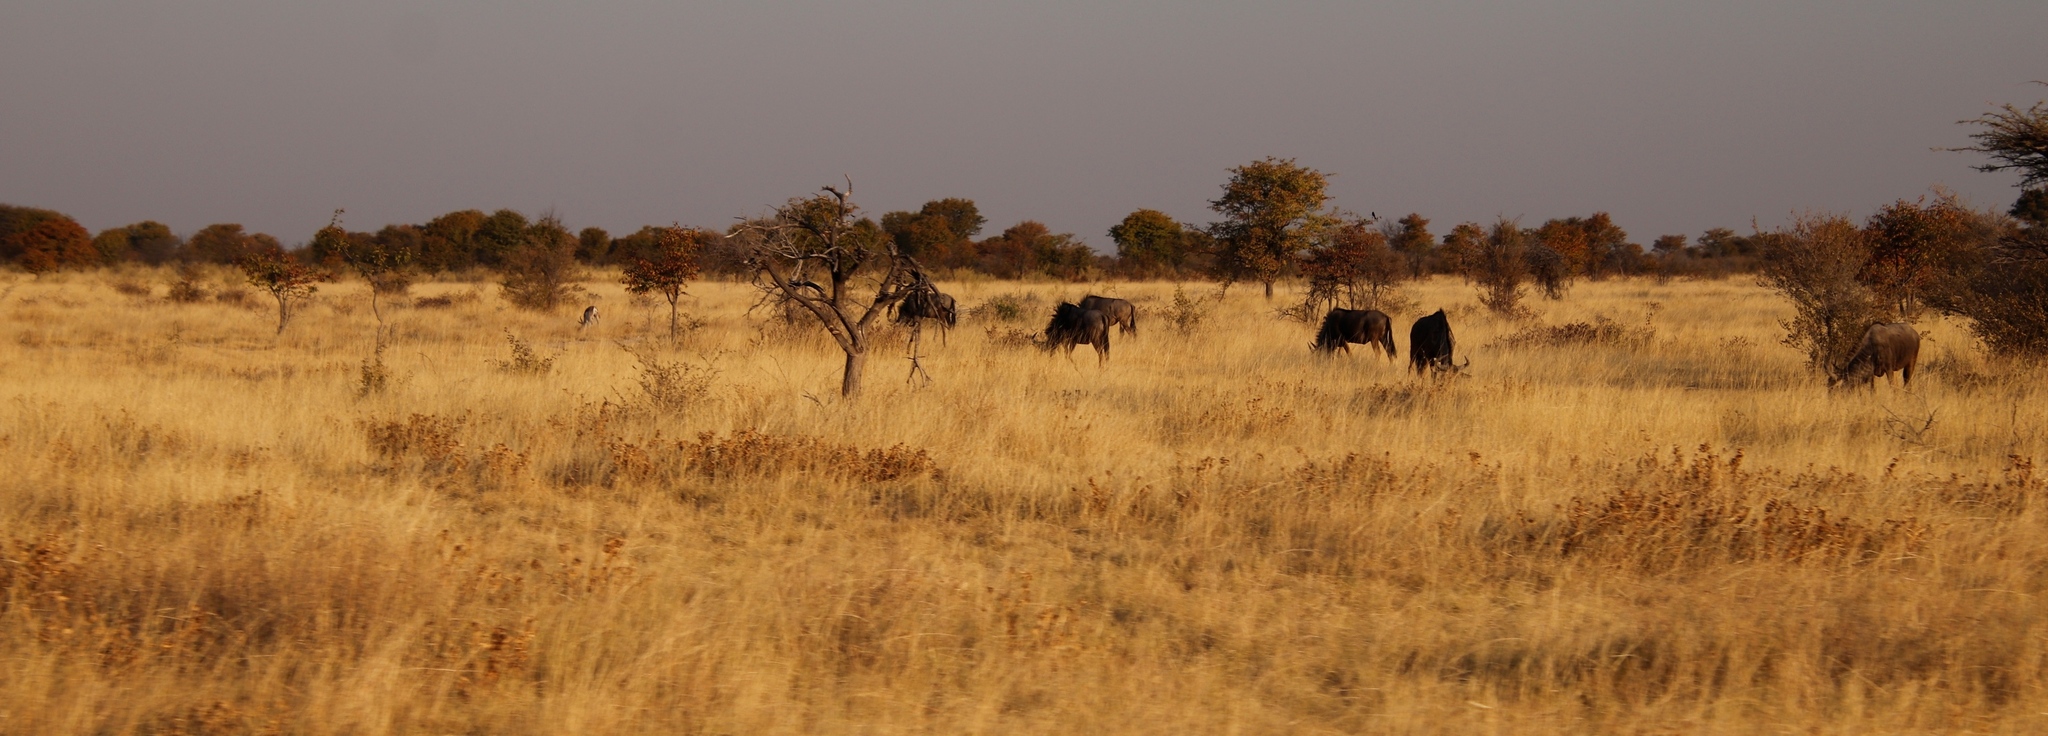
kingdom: Animalia
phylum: Chordata
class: Mammalia
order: Artiodactyla
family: Bovidae
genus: Connochaetes
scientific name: Connochaetes taurinus
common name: Blue wildebeest
